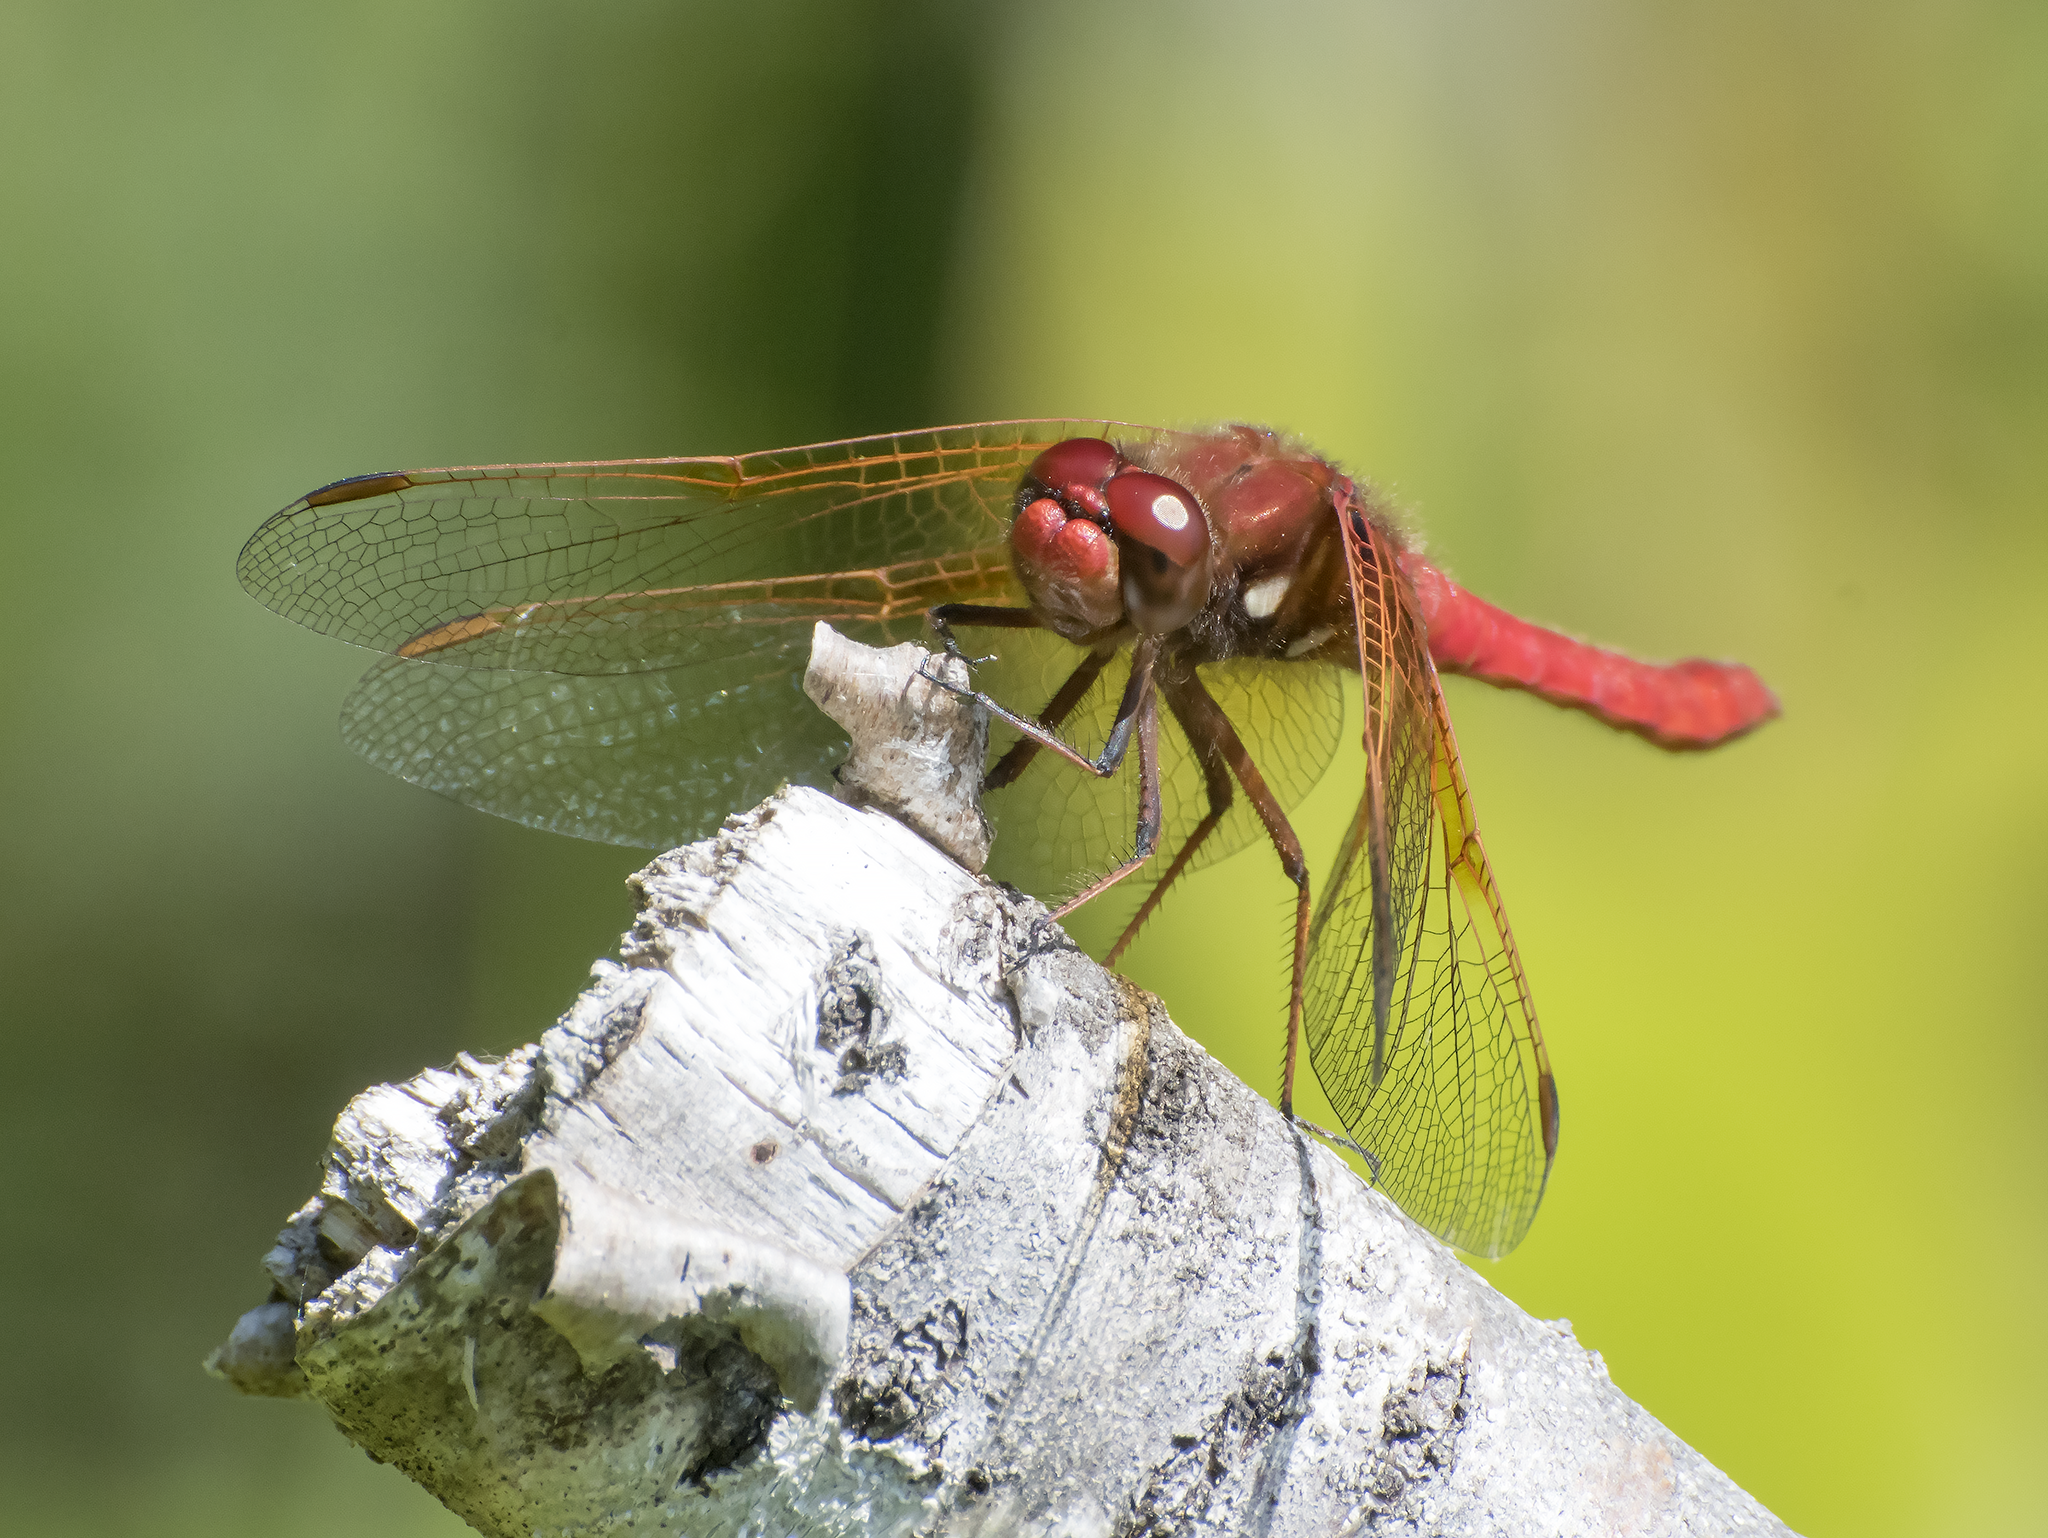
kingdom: Animalia
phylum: Arthropoda
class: Insecta
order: Odonata
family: Libellulidae
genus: Sympetrum
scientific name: Sympetrum illotum
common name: Cardinal meadowhawk
